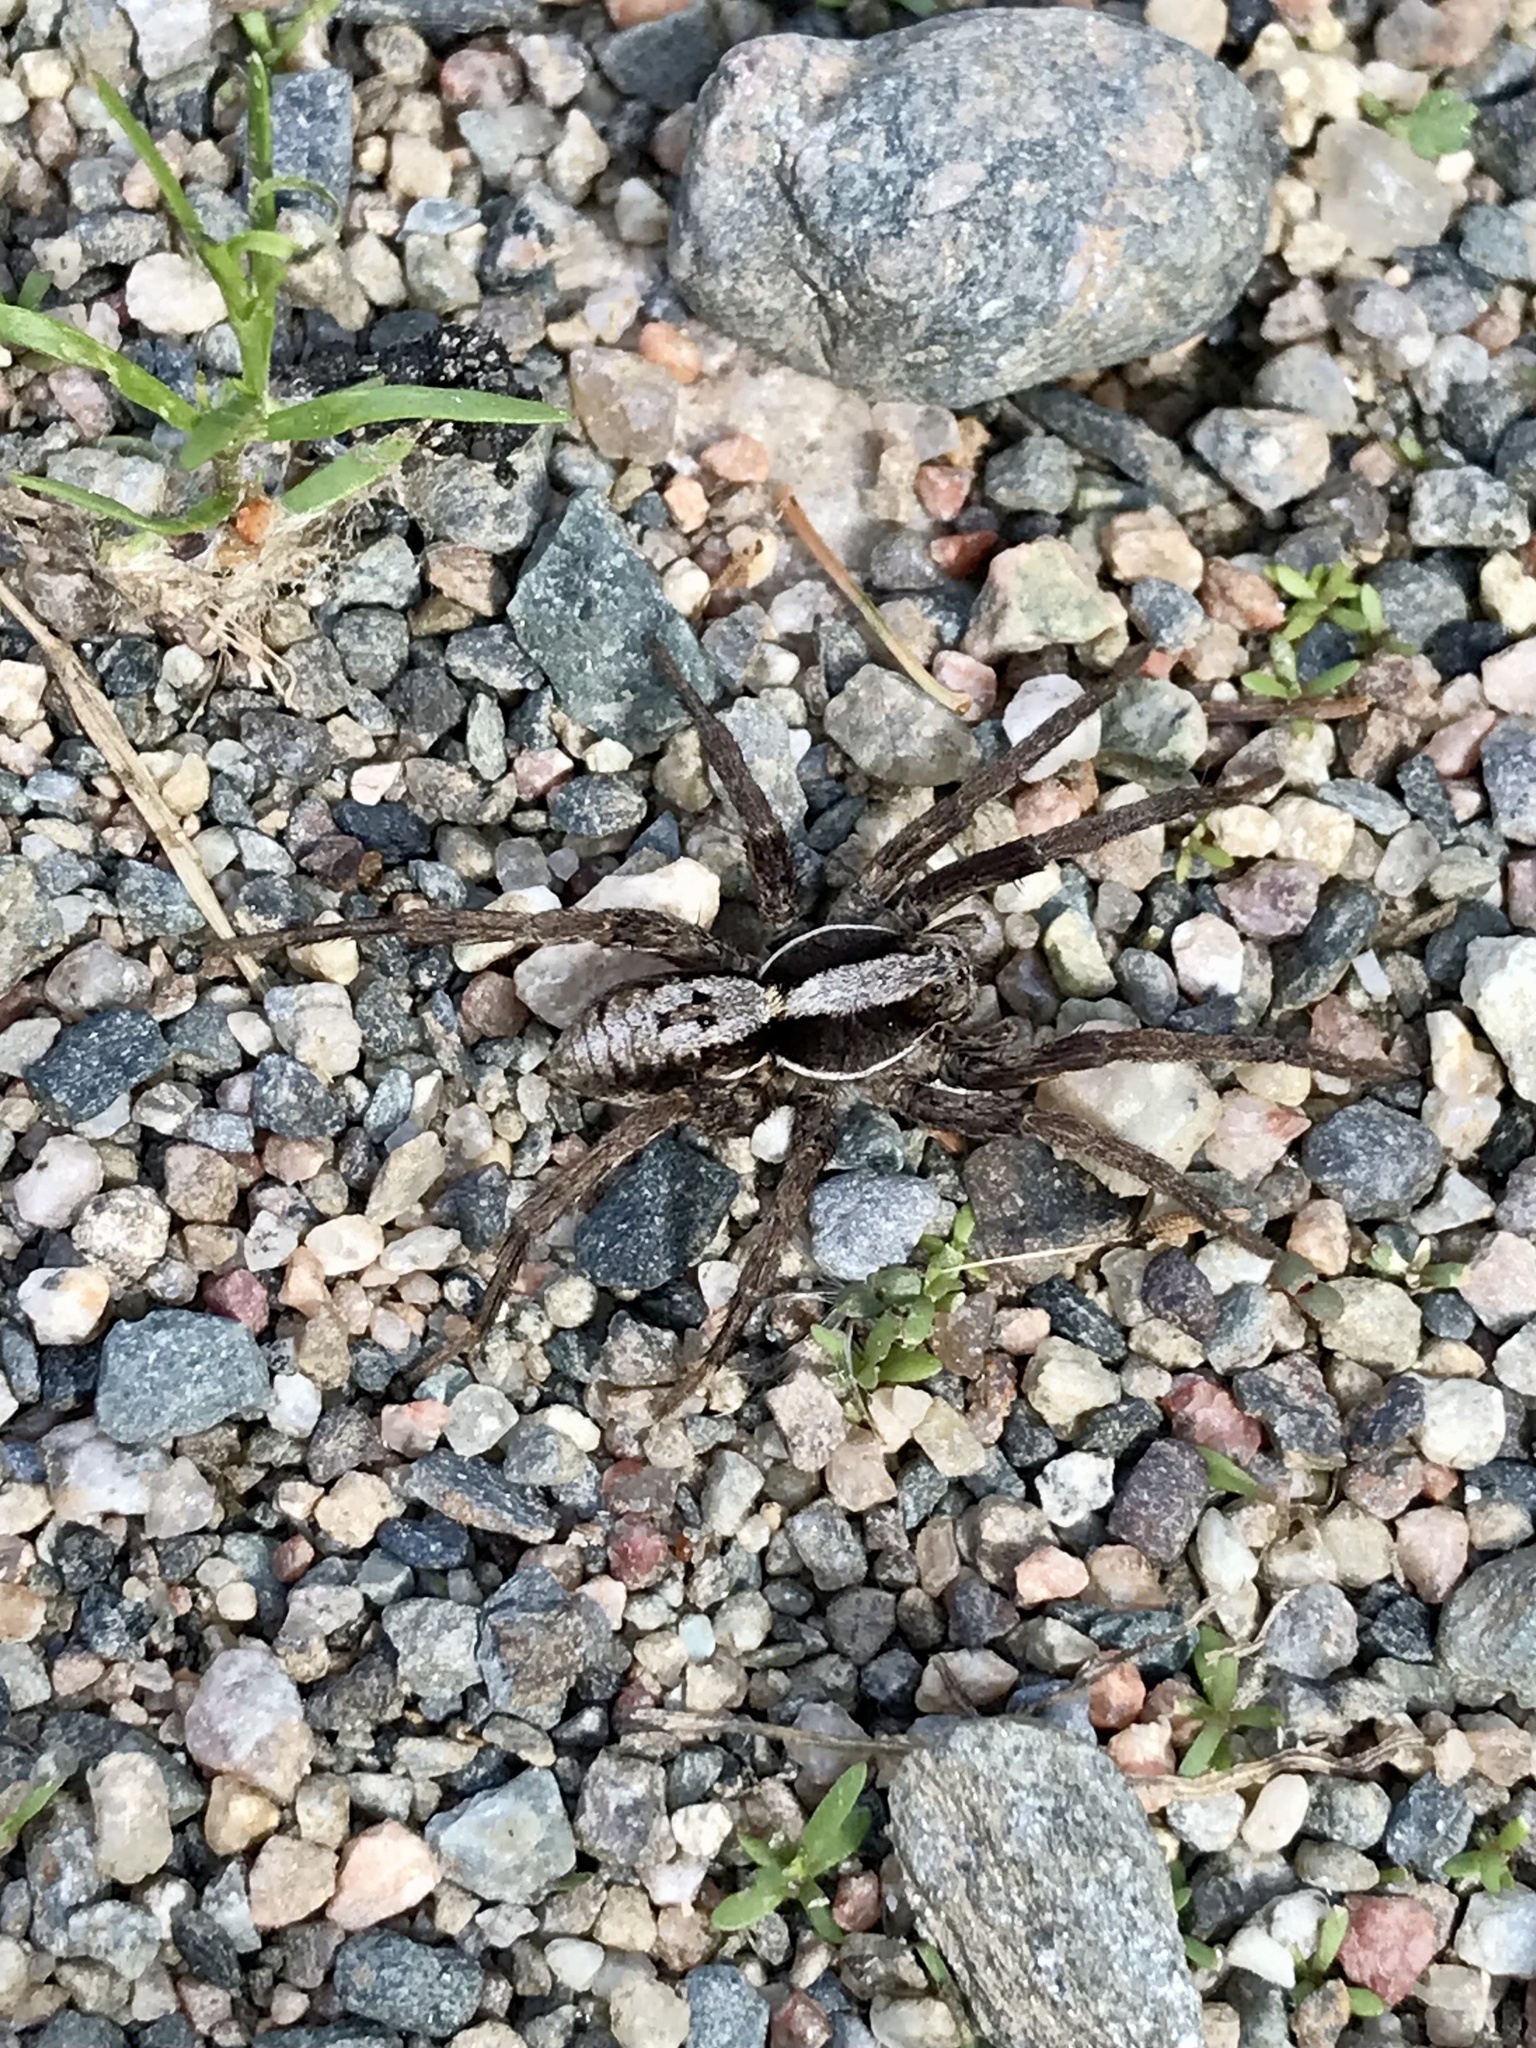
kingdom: Animalia
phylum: Arthropoda
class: Arachnida
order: Araneae
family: Lycosidae
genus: Hogna
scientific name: Hogna frondicola
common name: Forest wolf spider
